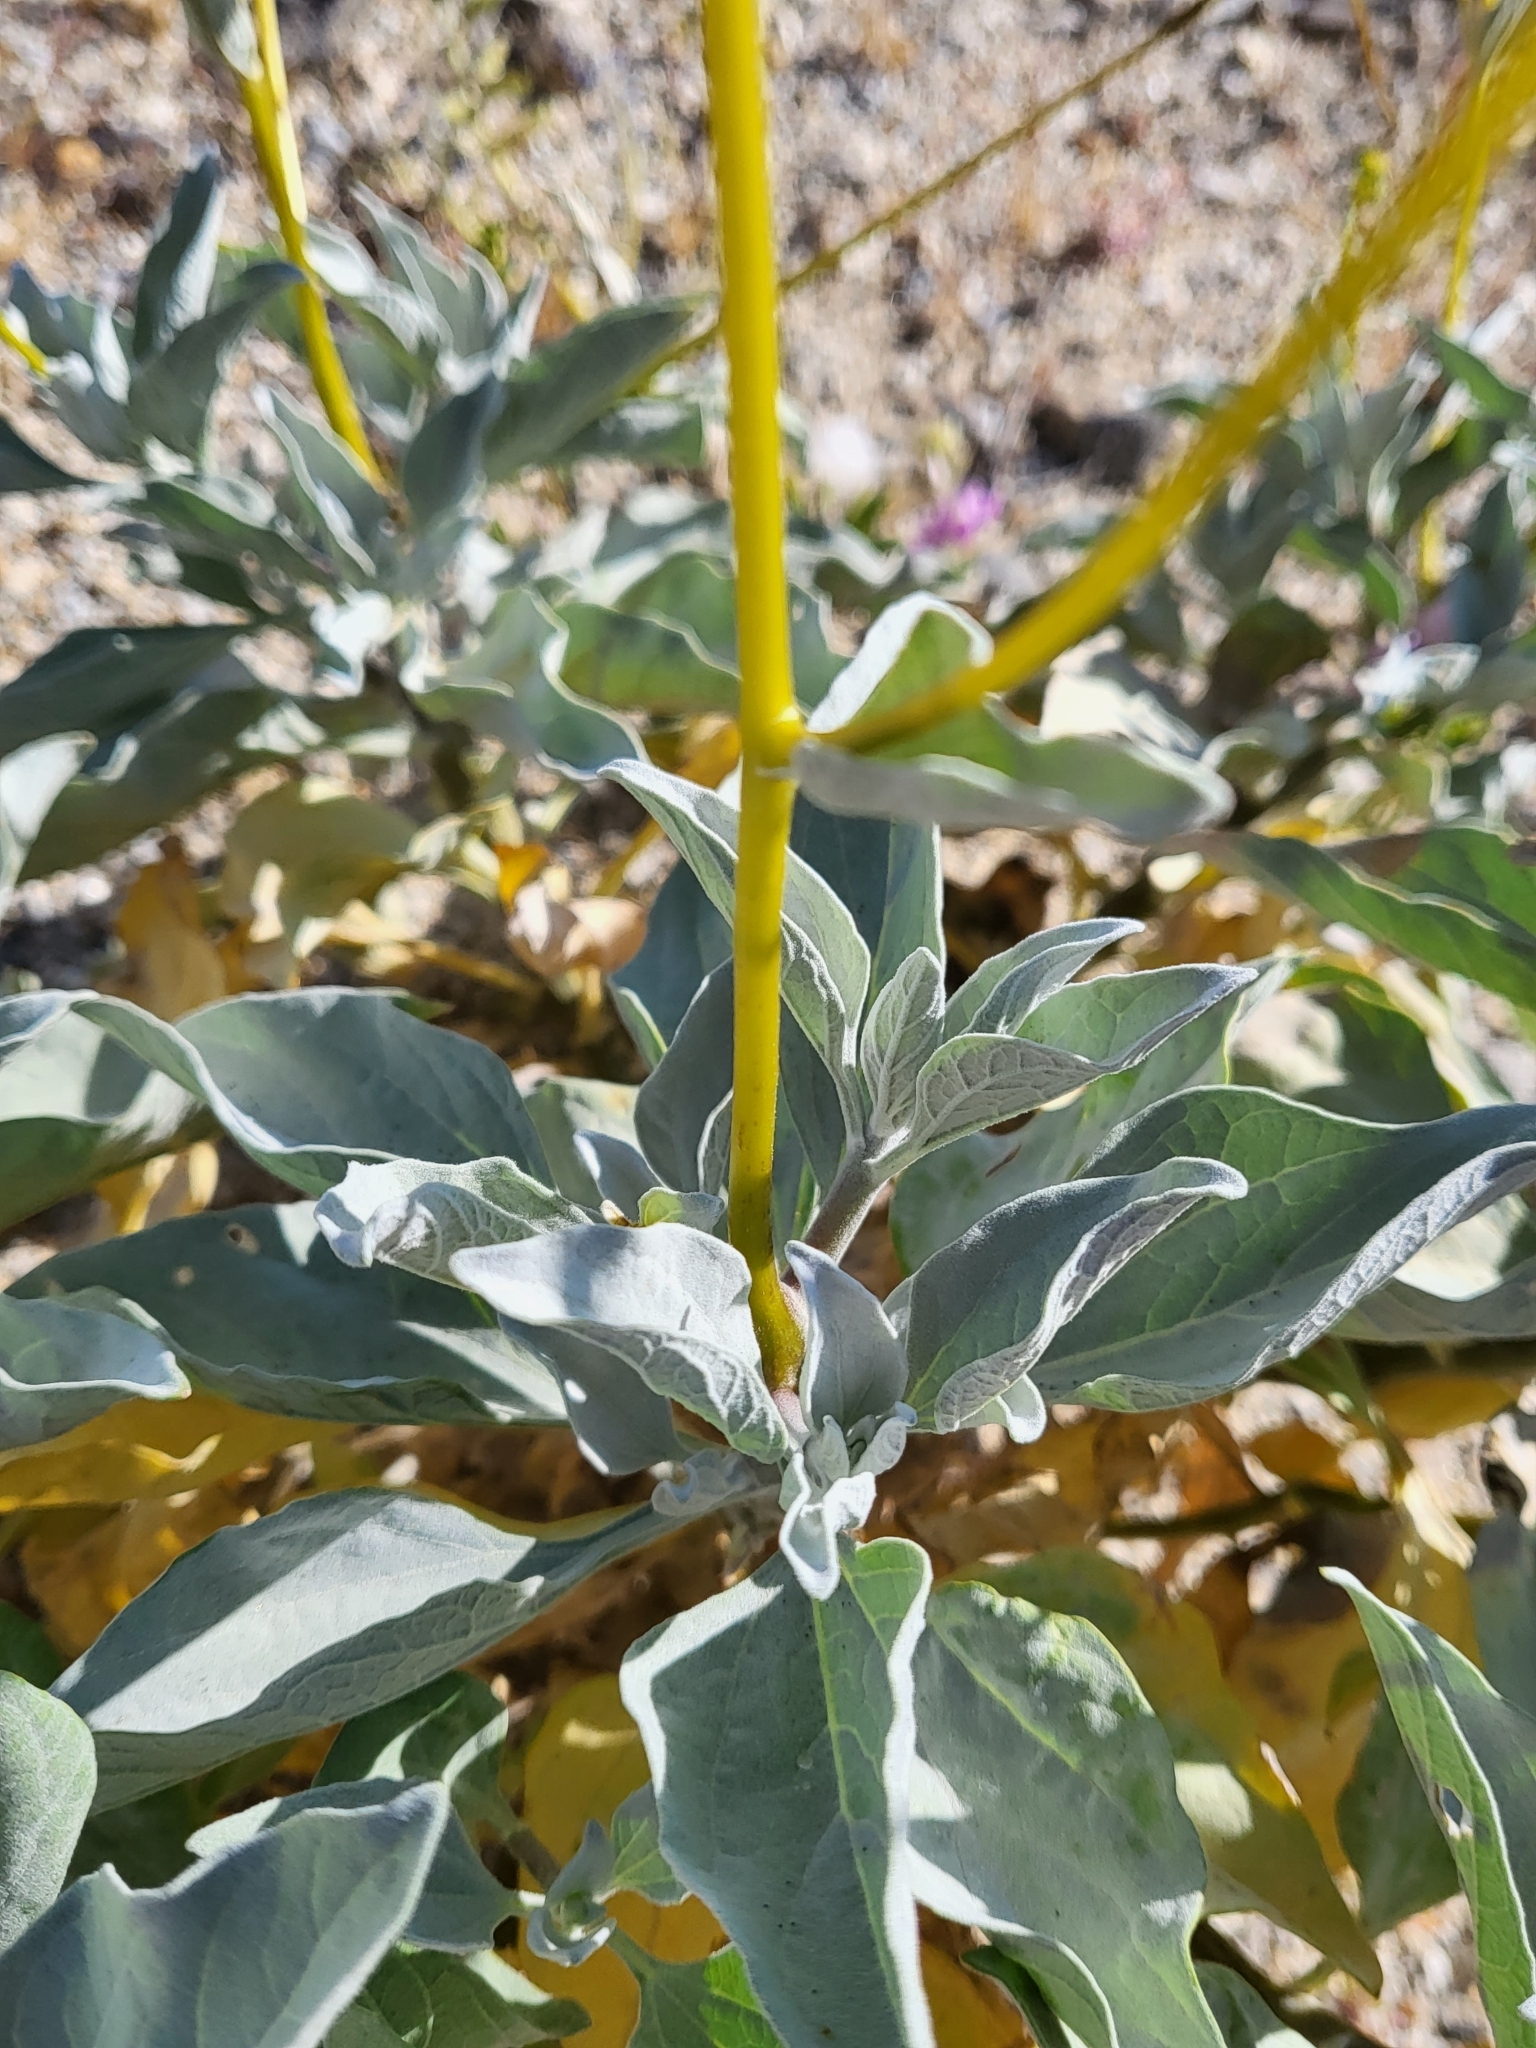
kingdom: Plantae
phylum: Tracheophyta
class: Magnoliopsida
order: Asterales
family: Asteraceae
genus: Encelia
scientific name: Encelia farinosa
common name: Brittlebush
